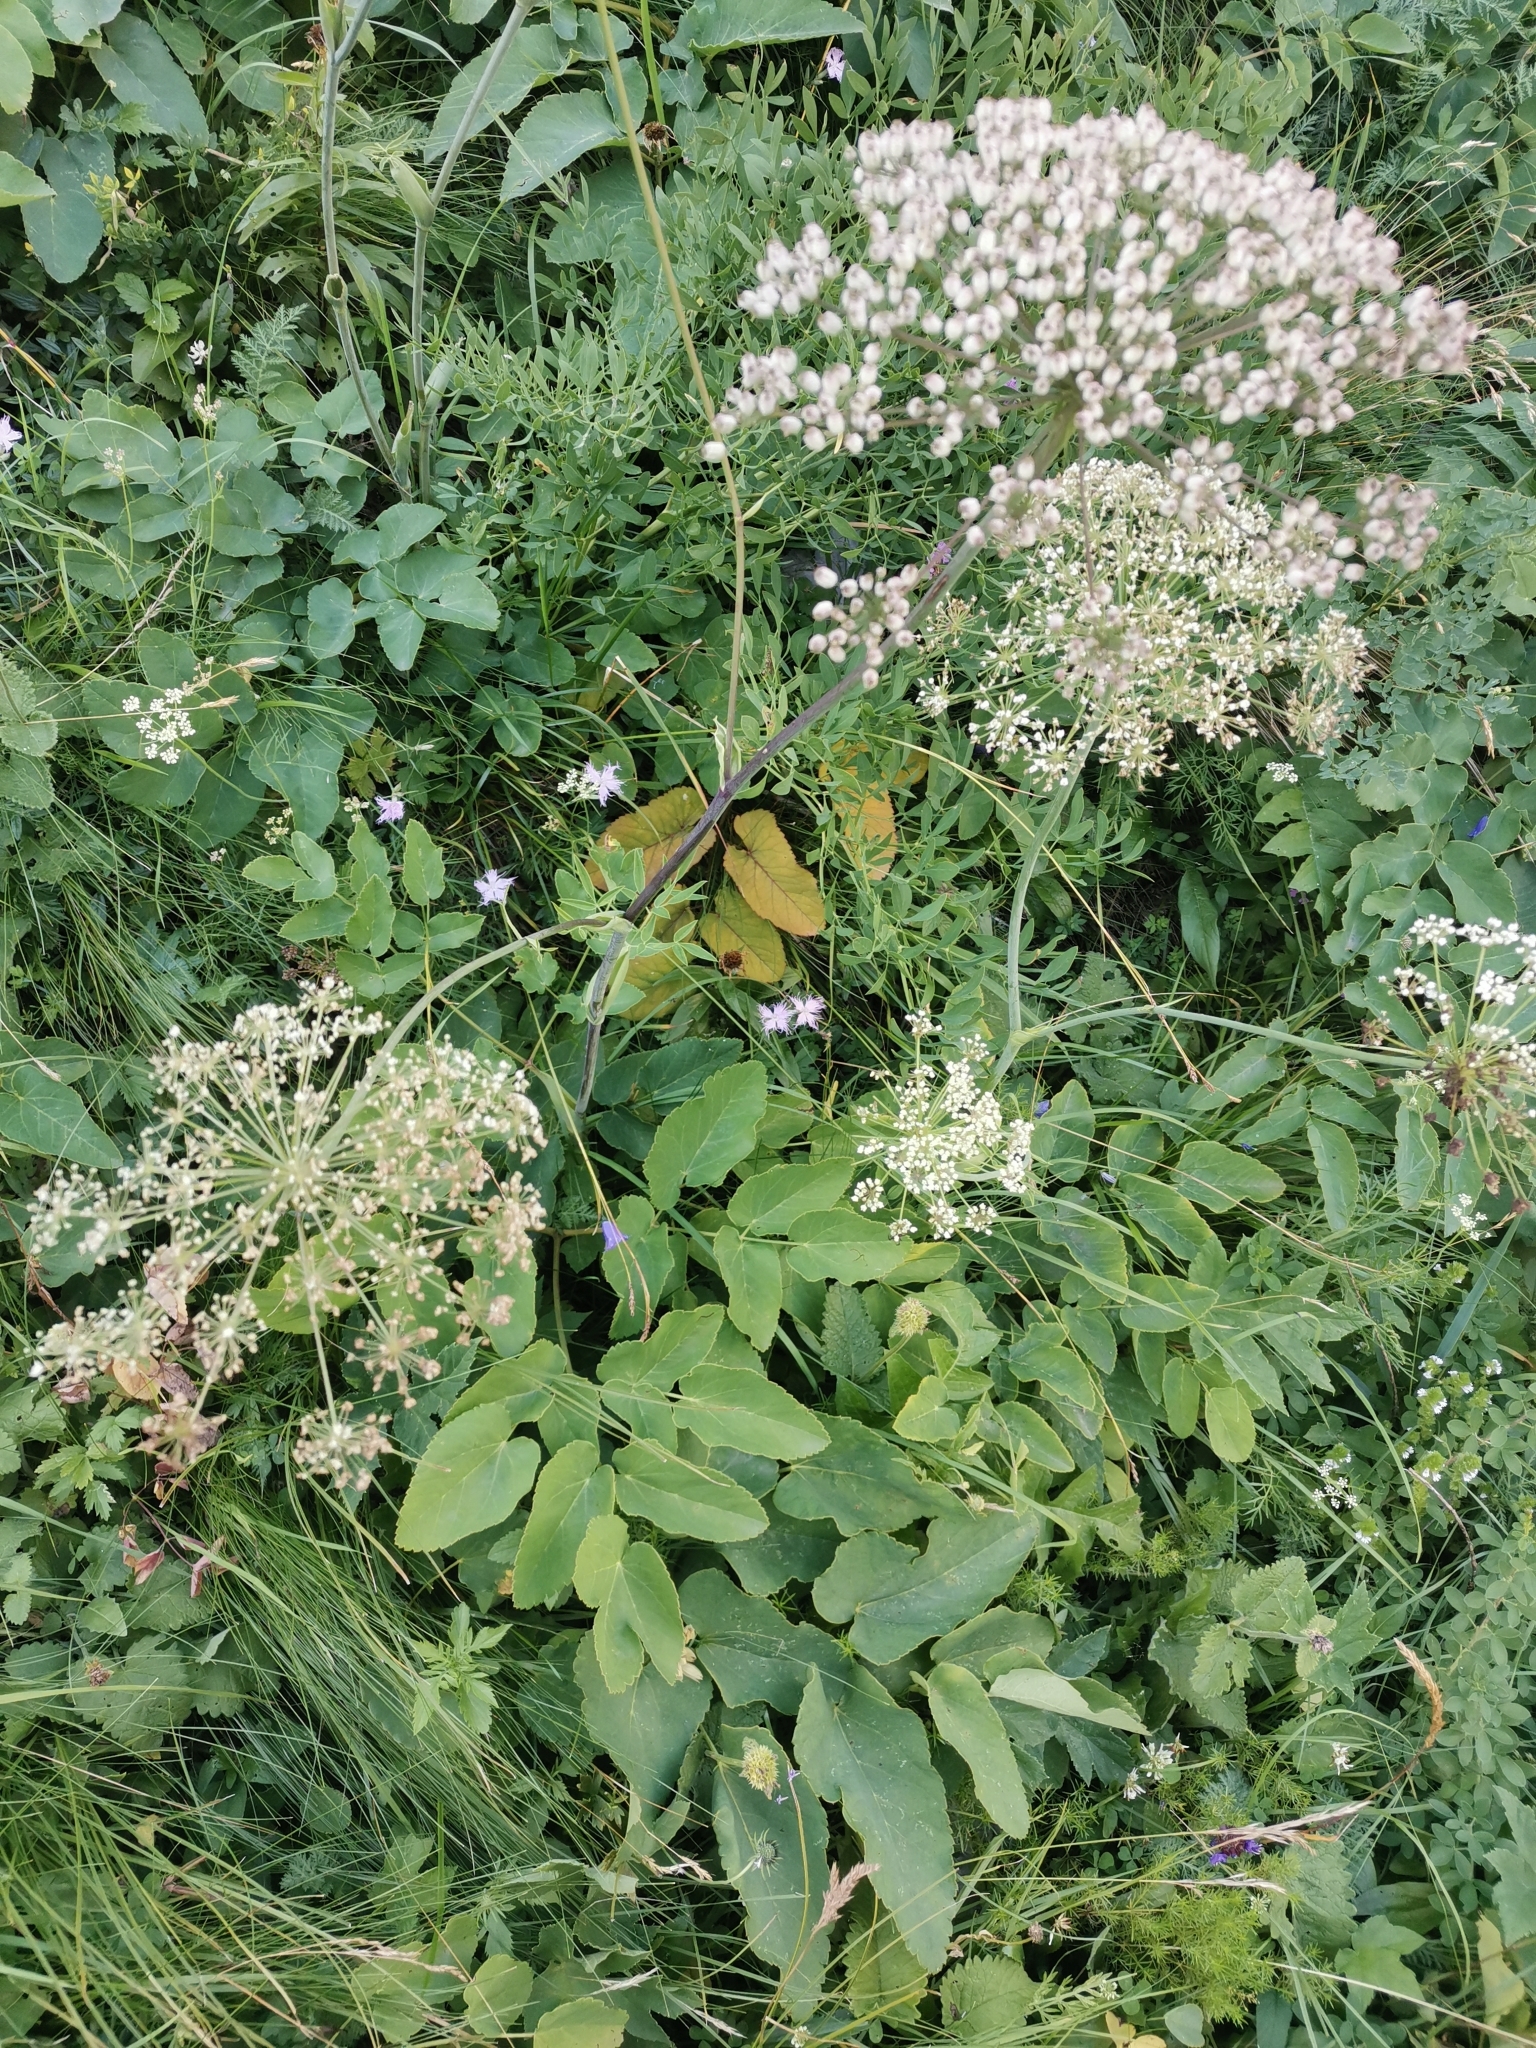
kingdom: Plantae
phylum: Tracheophyta
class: Magnoliopsida
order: Apiales
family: Apiaceae
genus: Laserpitium
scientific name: Laserpitium latifolium
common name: Broadleaf sermountain
